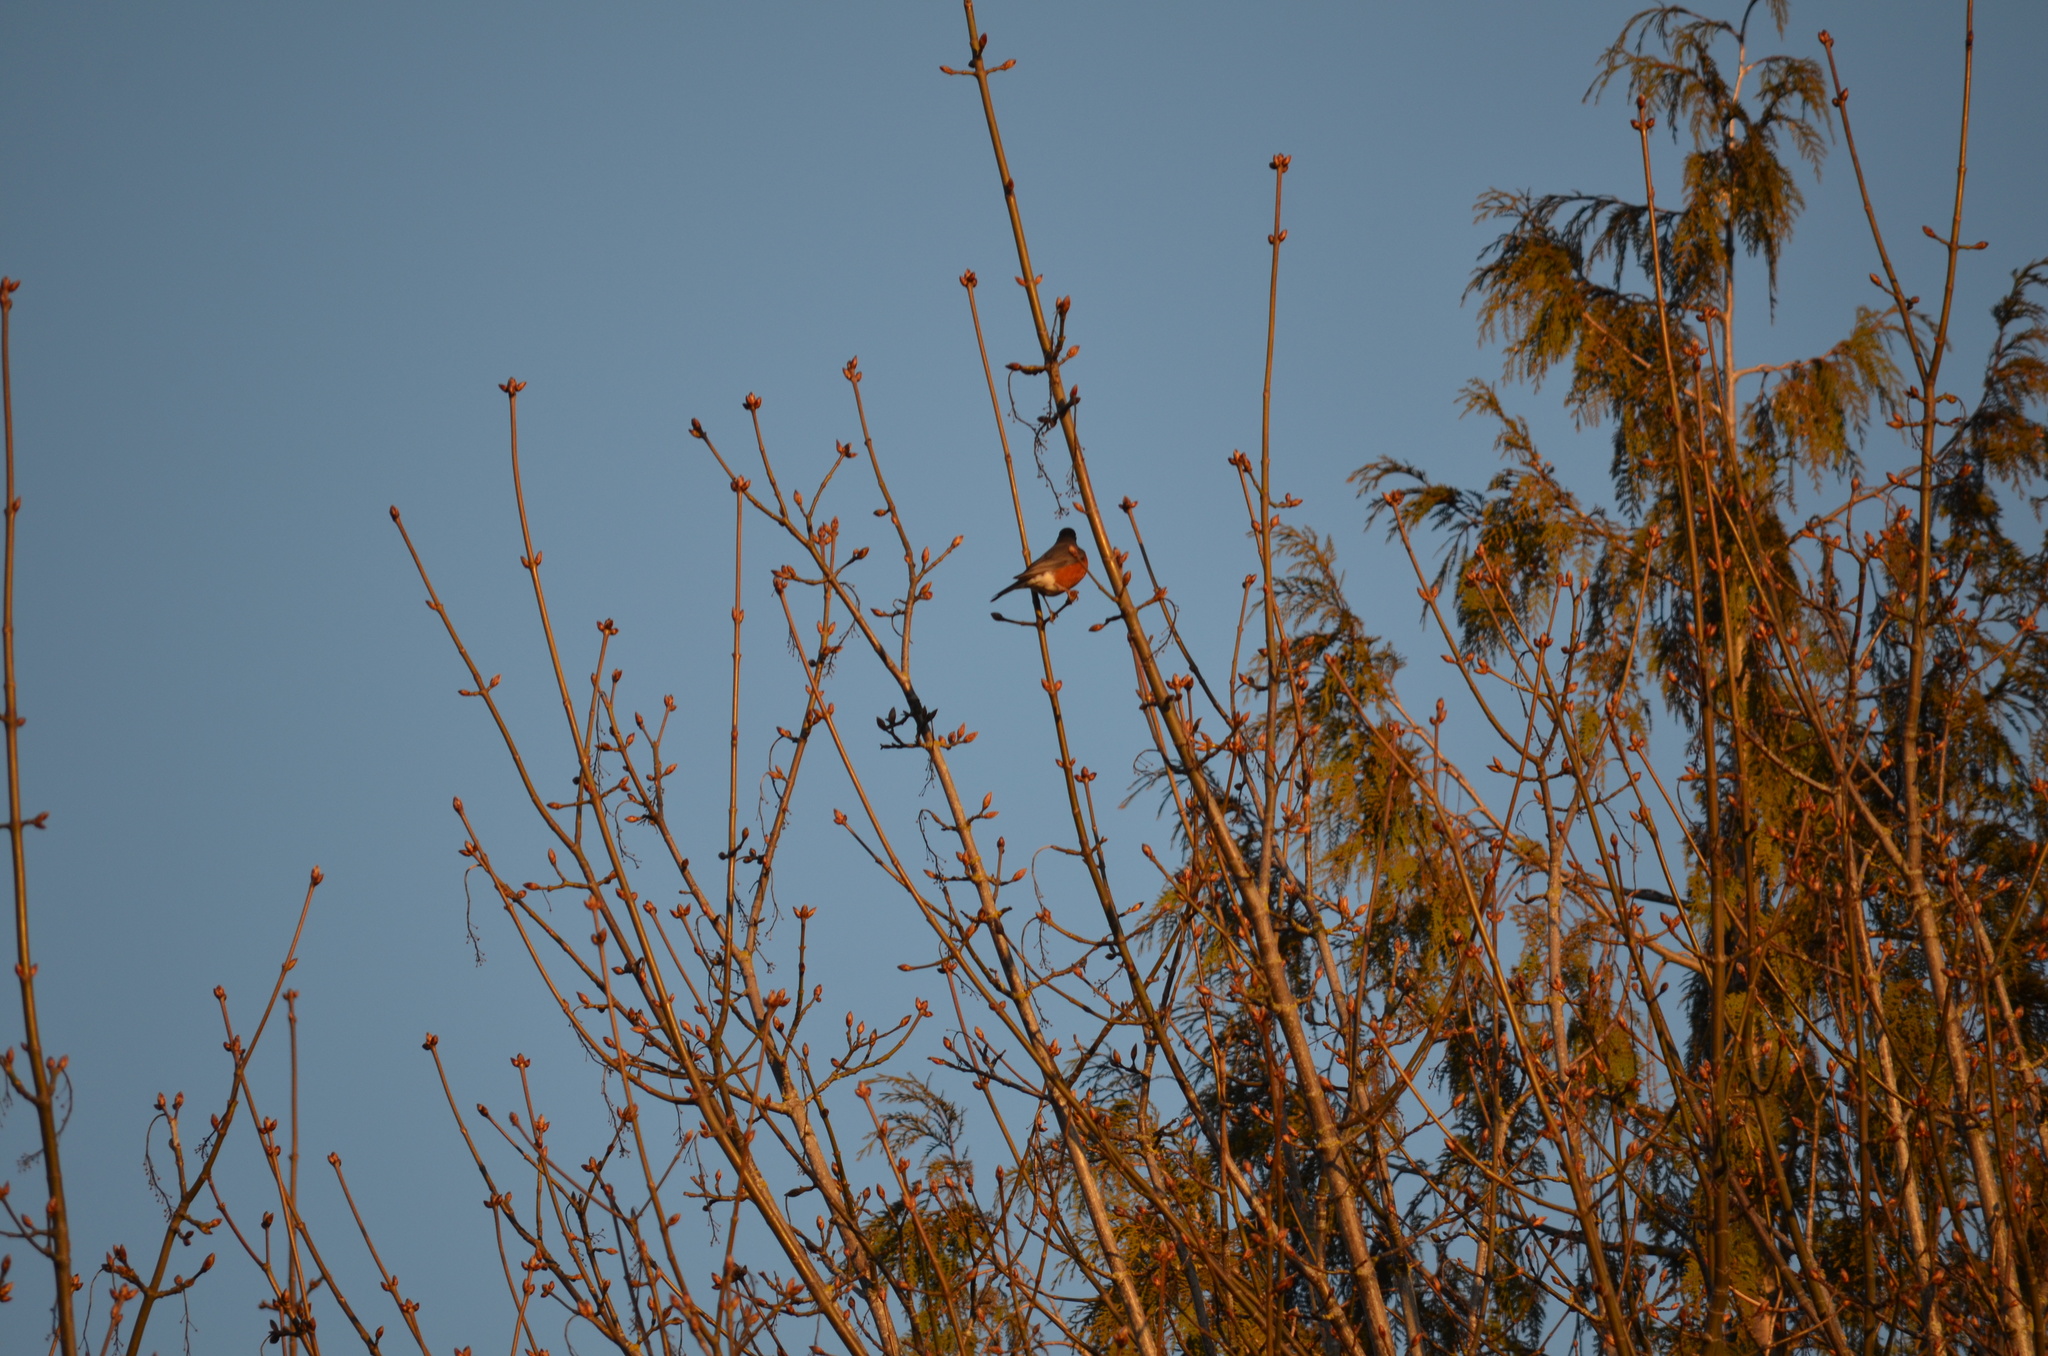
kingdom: Animalia
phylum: Chordata
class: Aves
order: Passeriformes
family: Turdidae
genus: Turdus
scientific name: Turdus migratorius
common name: American robin
